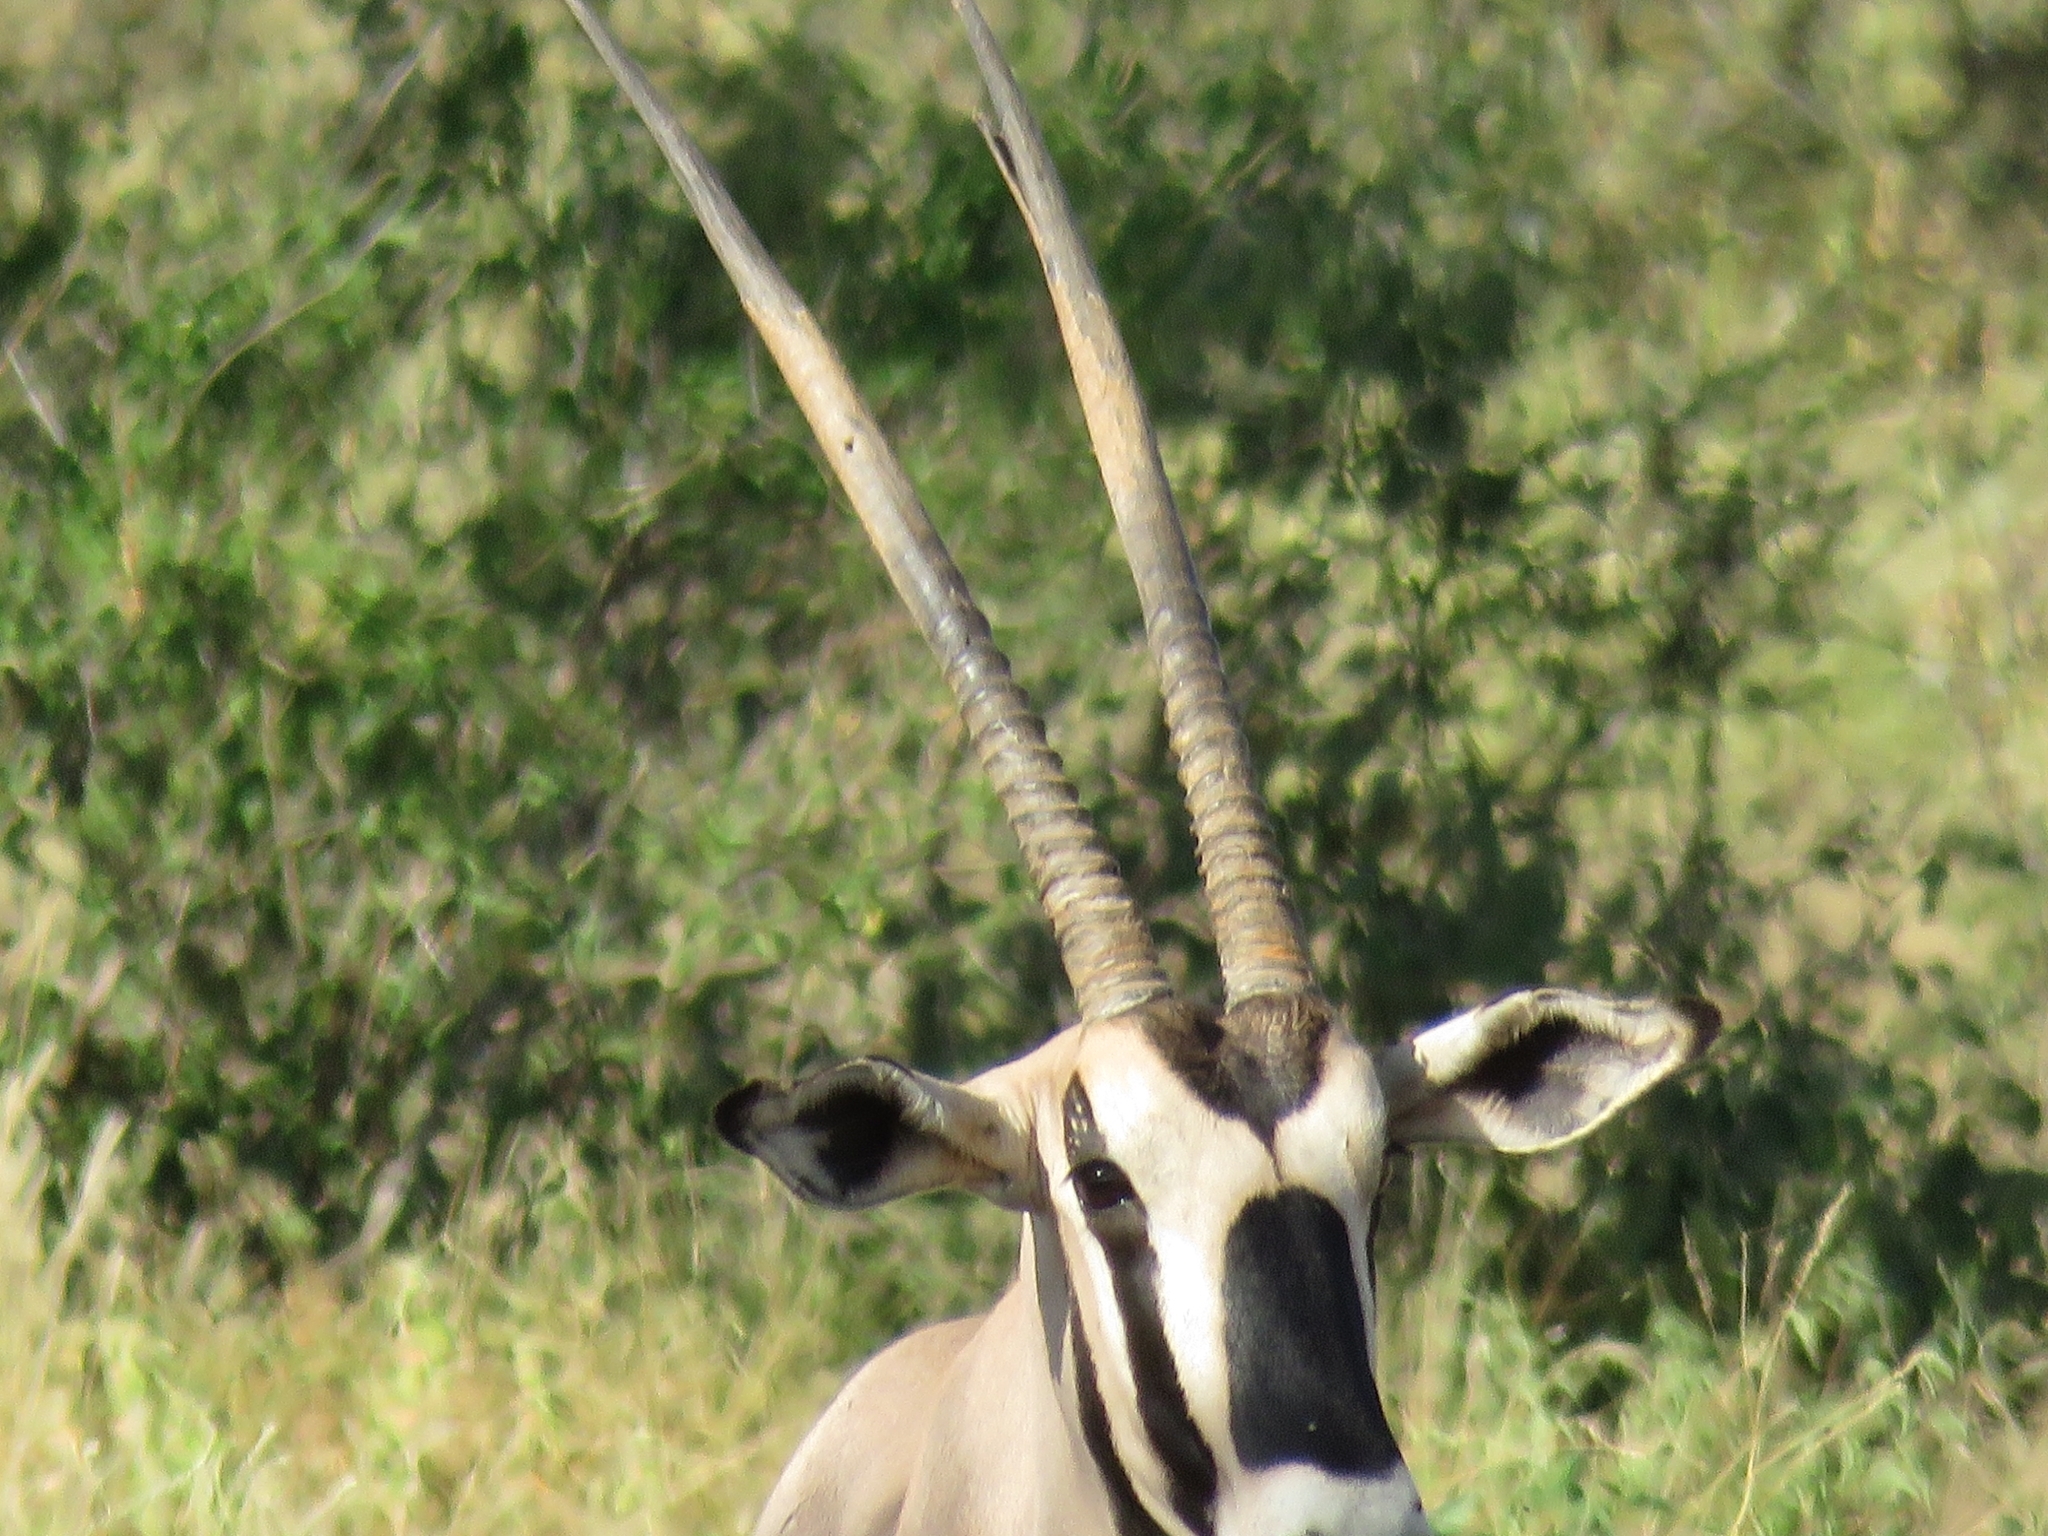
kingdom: Animalia
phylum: Chordata
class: Mammalia
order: Artiodactyla
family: Bovidae
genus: Oryx
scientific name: Oryx beisa
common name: Beisa
